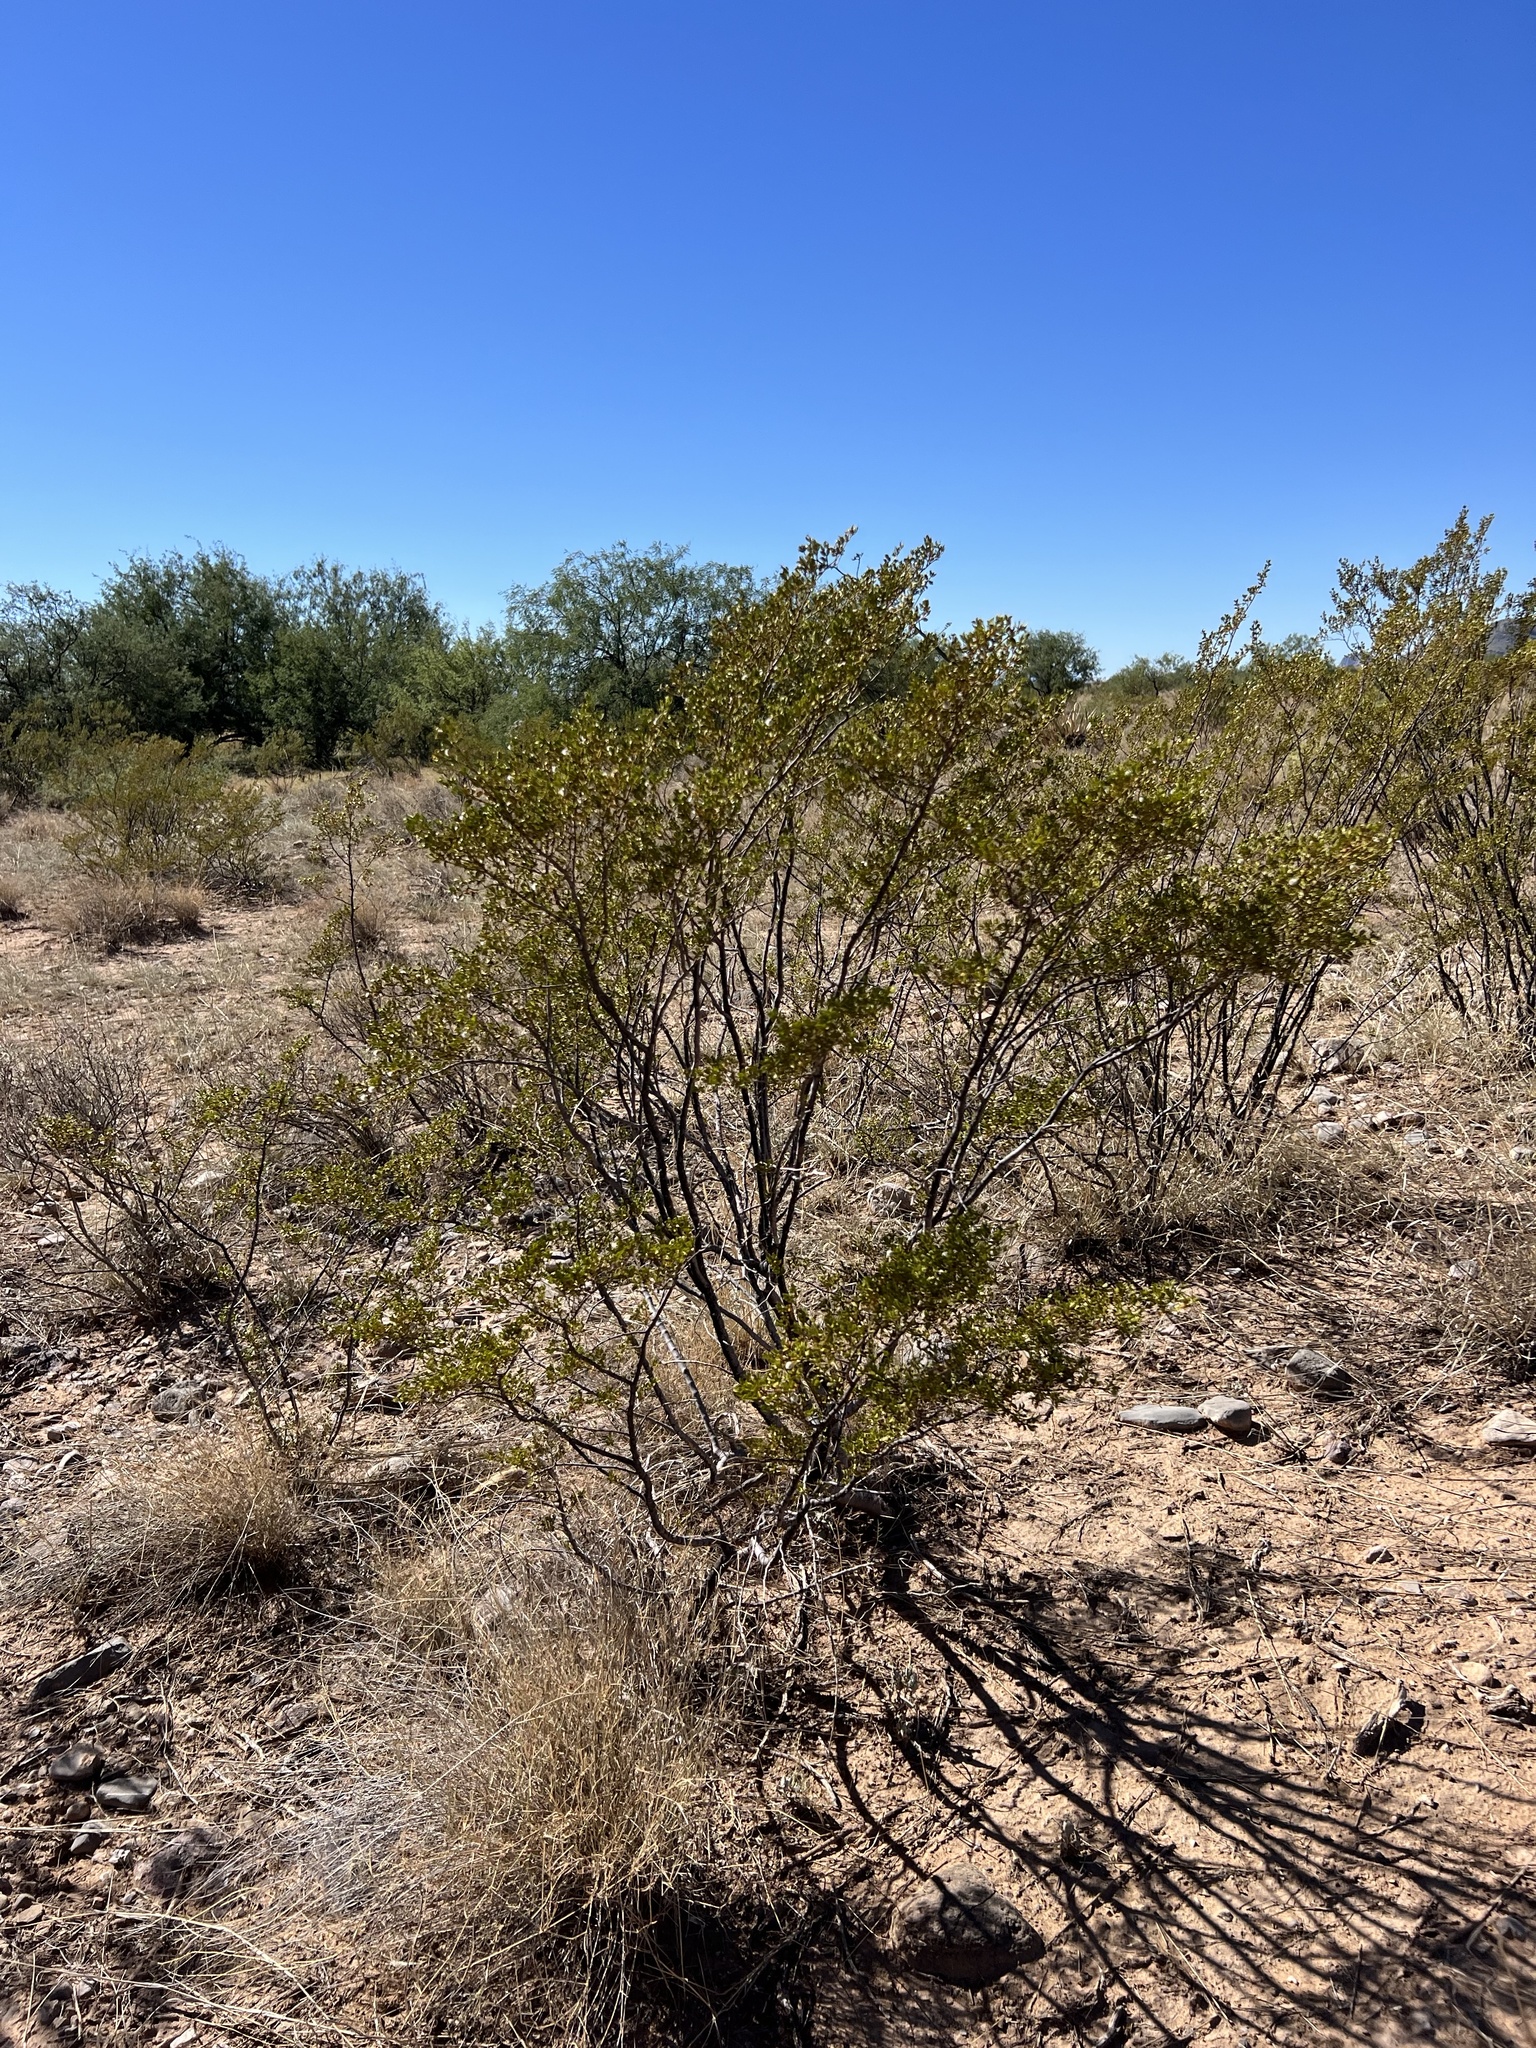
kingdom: Plantae
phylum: Tracheophyta
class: Magnoliopsida
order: Zygophyllales
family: Zygophyllaceae
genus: Larrea
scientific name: Larrea tridentata
